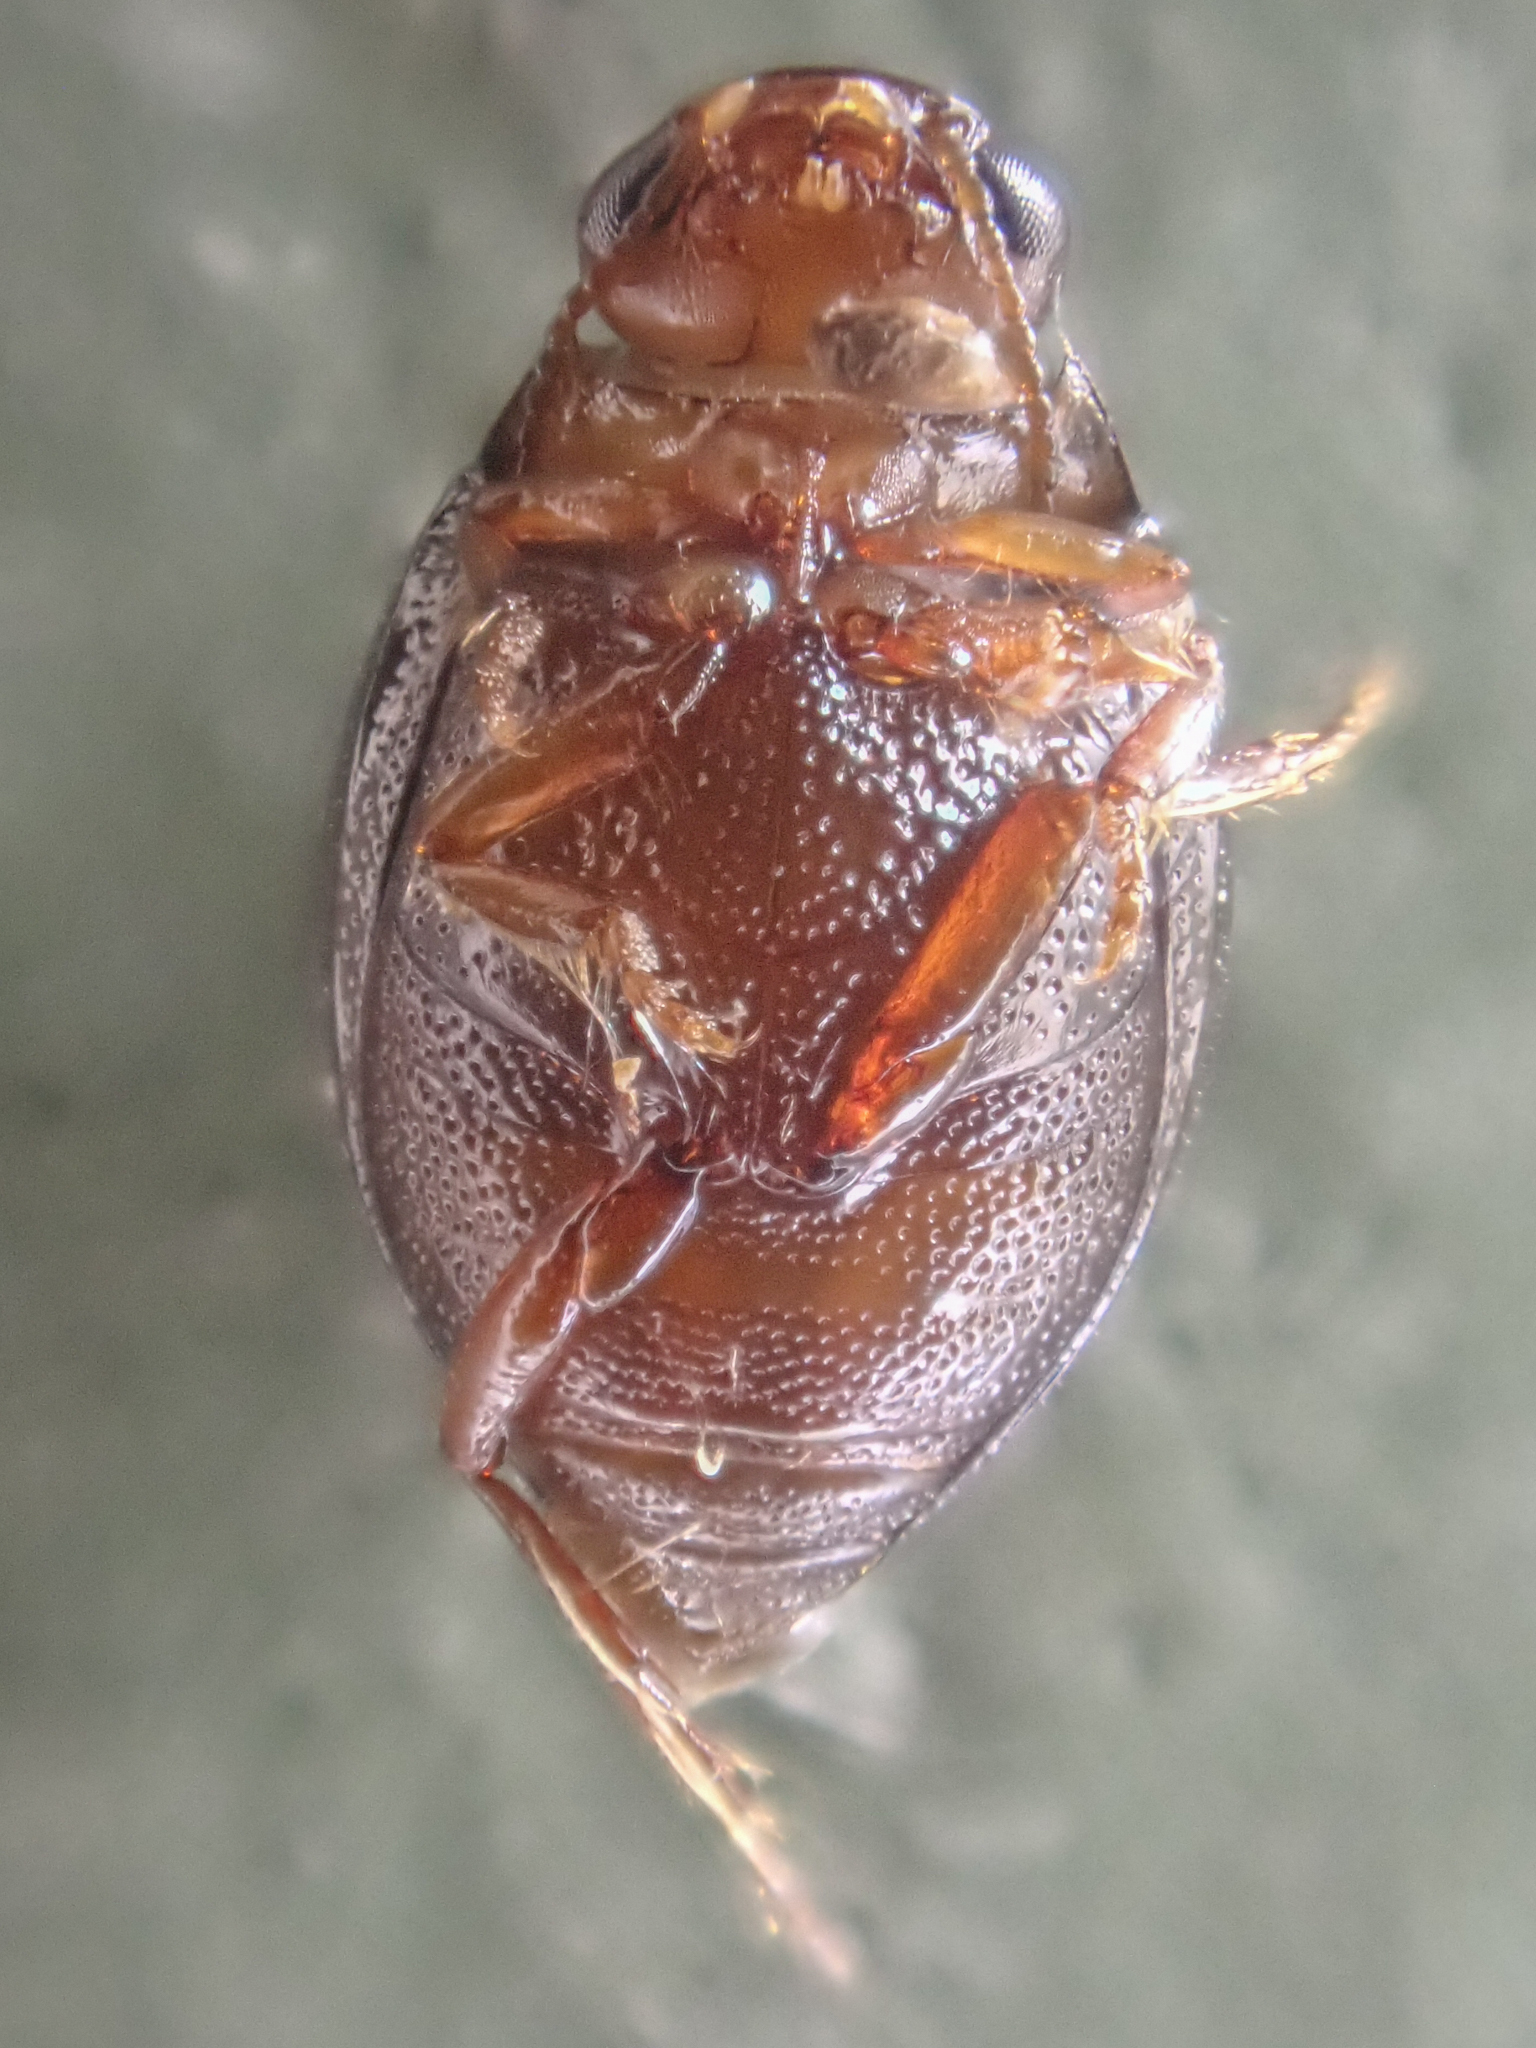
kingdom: Animalia
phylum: Arthropoda
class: Insecta
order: Coleoptera
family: Dytiscidae
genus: Hygrotus
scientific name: Hygrotus sayi
